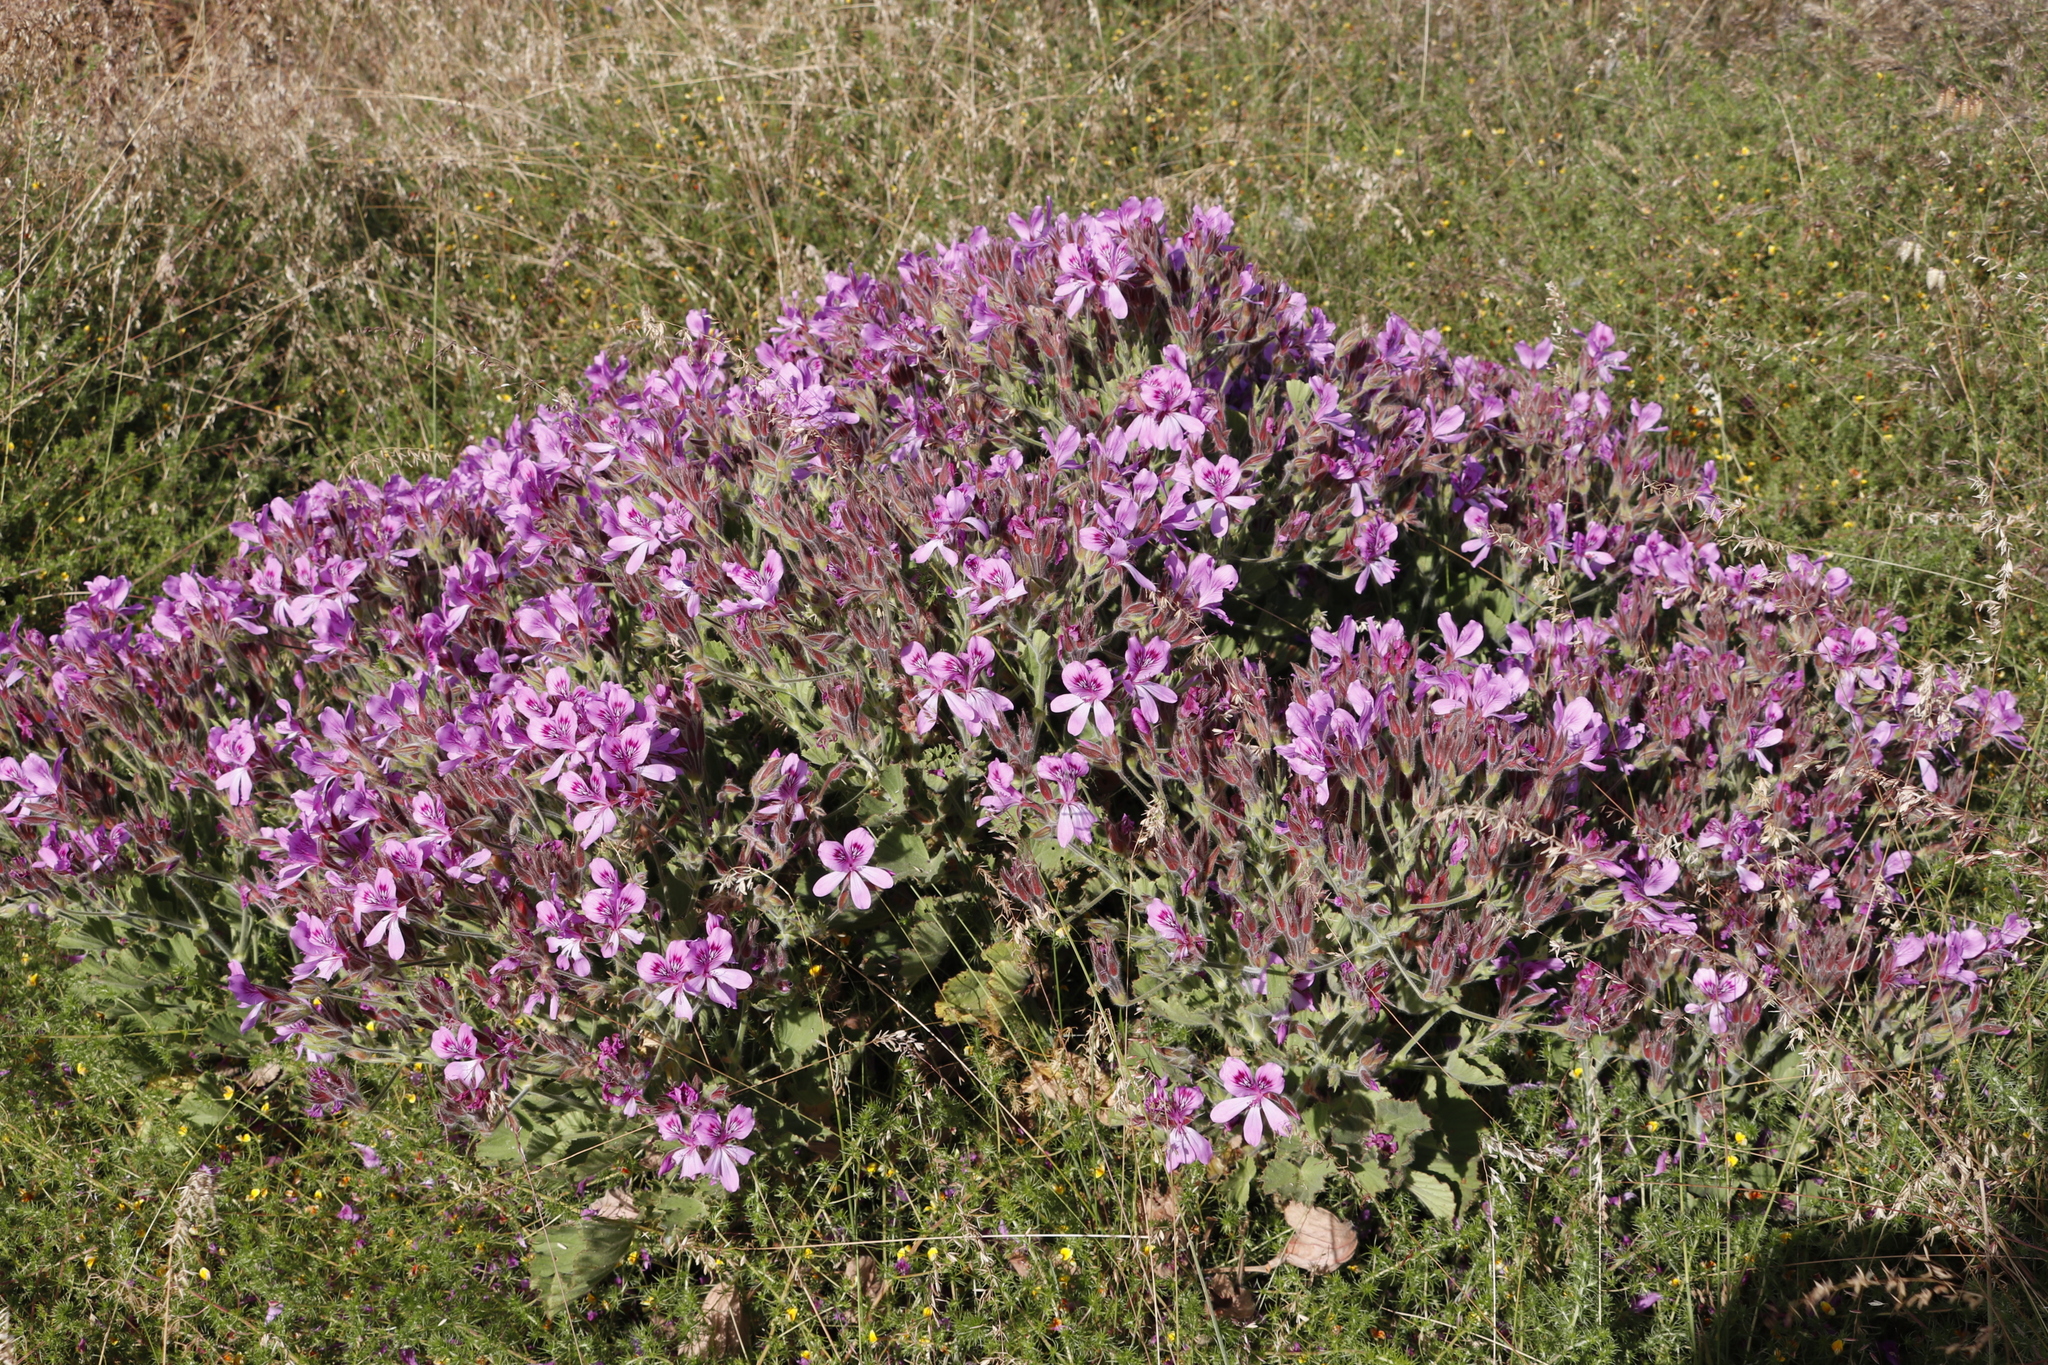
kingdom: Plantae
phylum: Tracheophyta
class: Magnoliopsida
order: Geraniales
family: Geraniaceae
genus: Pelargonium
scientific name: Pelargonium cucullatum
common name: Tree pelargonium
